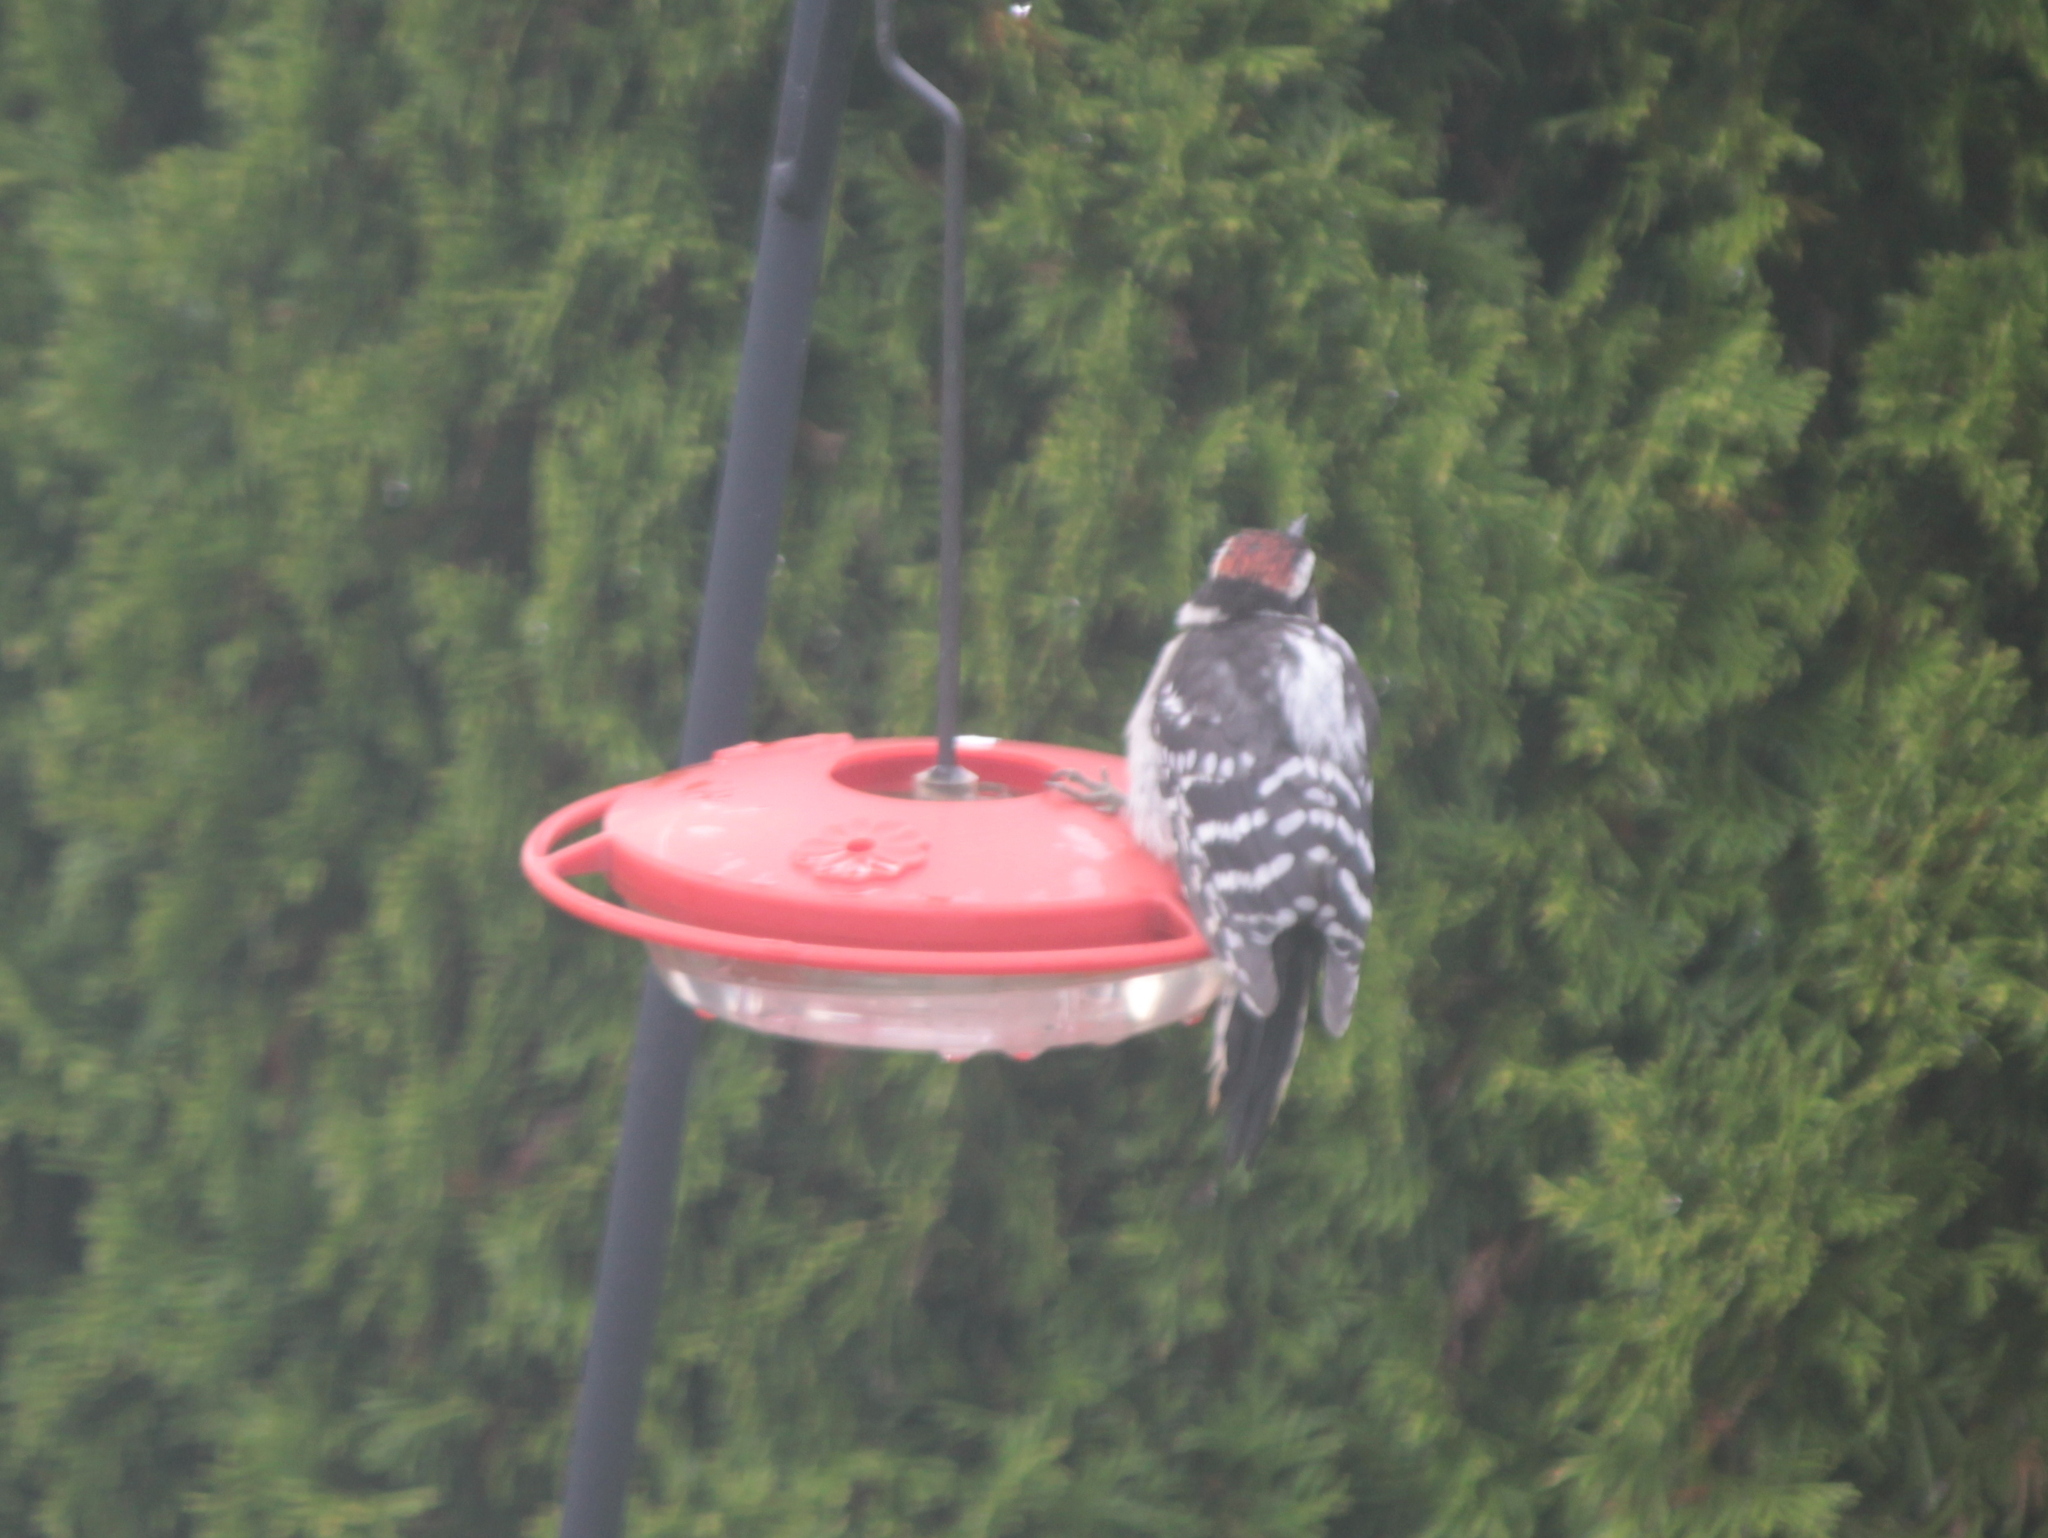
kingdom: Animalia
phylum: Chordata
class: Aves
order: Piciformes
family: Picidae
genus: Dryobates
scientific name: Dryobates pubescens
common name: Downy woodpecker
